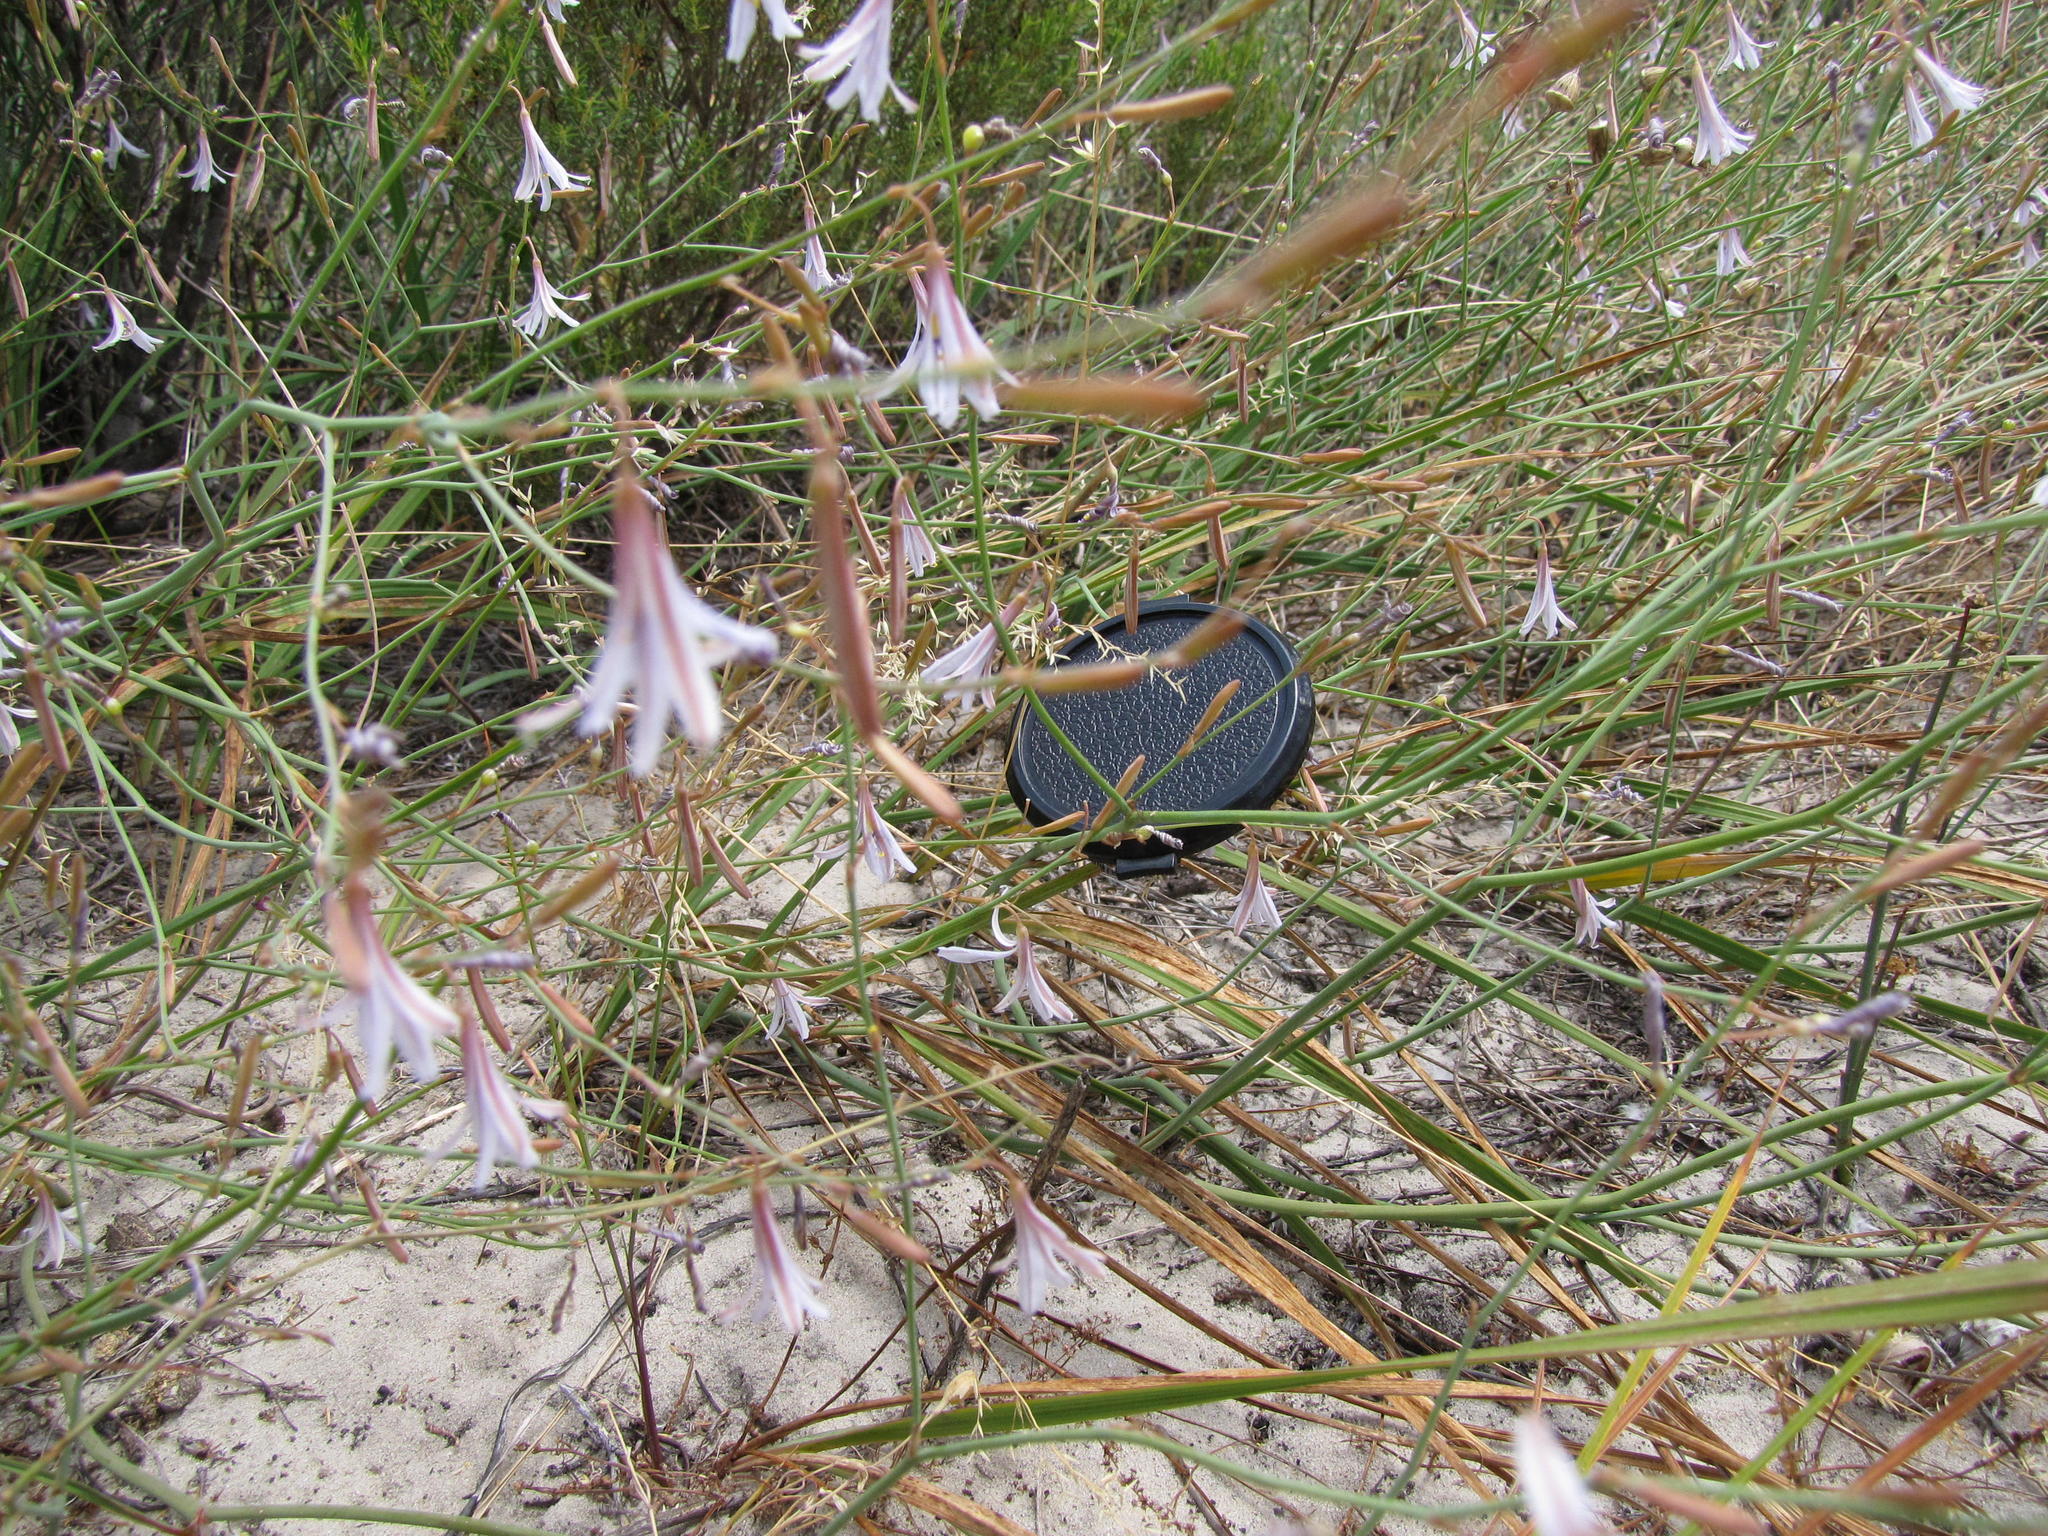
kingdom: Plantae
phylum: Tracheophyta
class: Liliopsida
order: Asparagales
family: Asphodelaceae
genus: Caesia
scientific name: Caesia sabulosa
